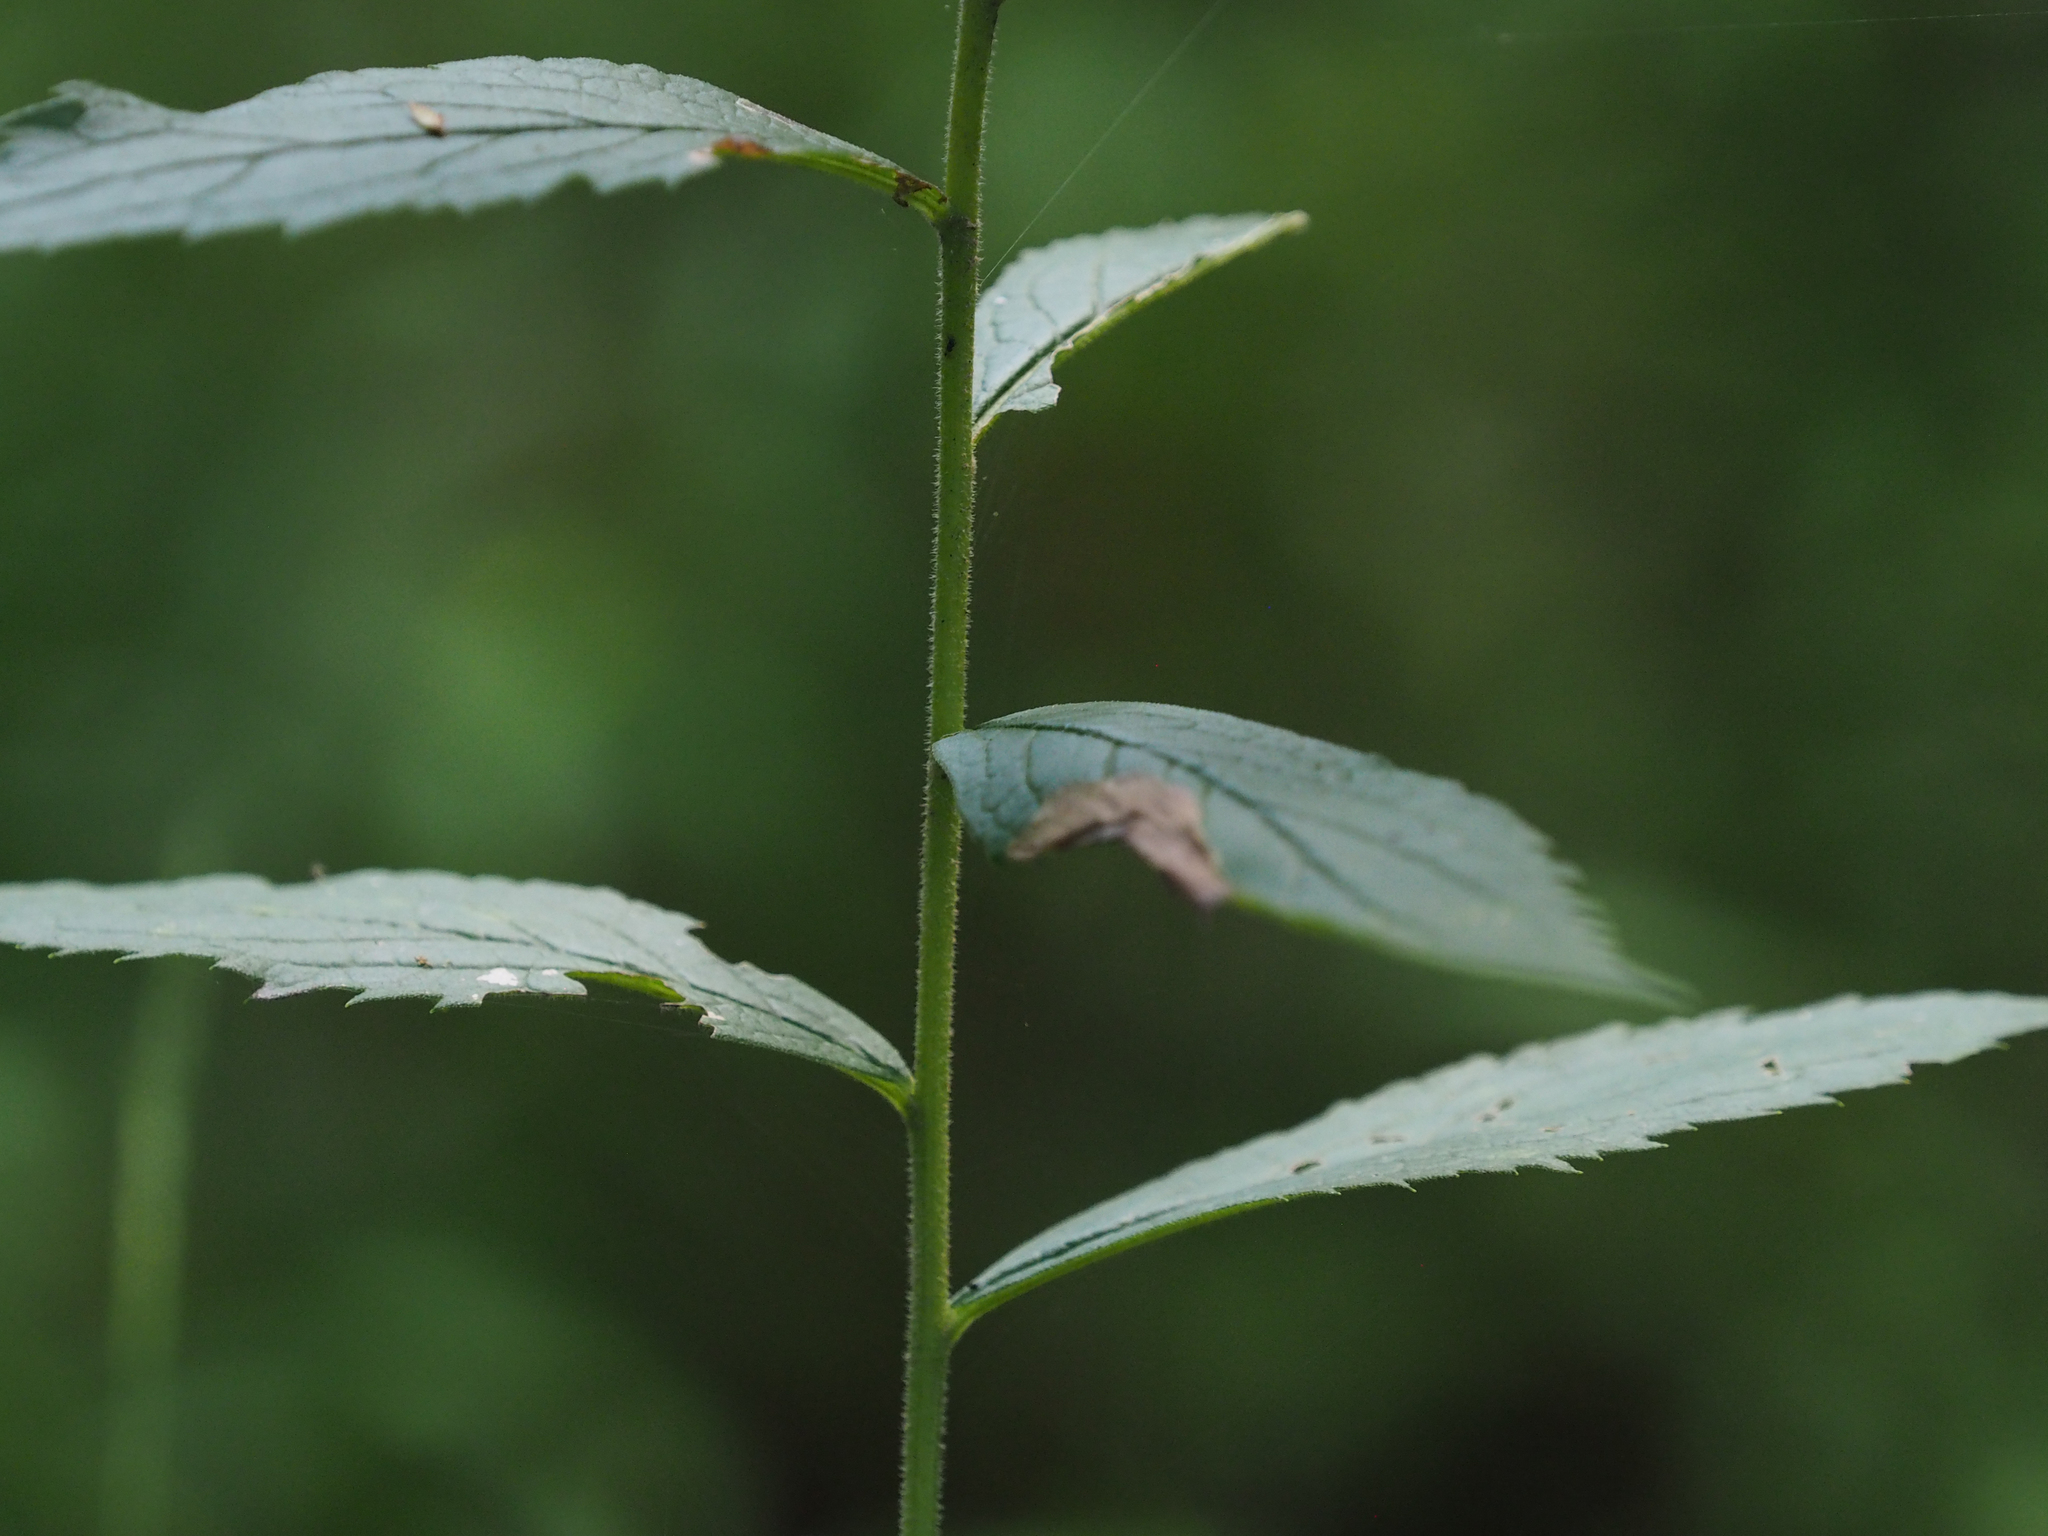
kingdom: Plantae
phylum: Tracheophyta
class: Magnoliopsida
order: Asterales
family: Asteraceae
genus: Solidago
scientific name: Solidago rugosa
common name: Rough-stemmed goldenrod
